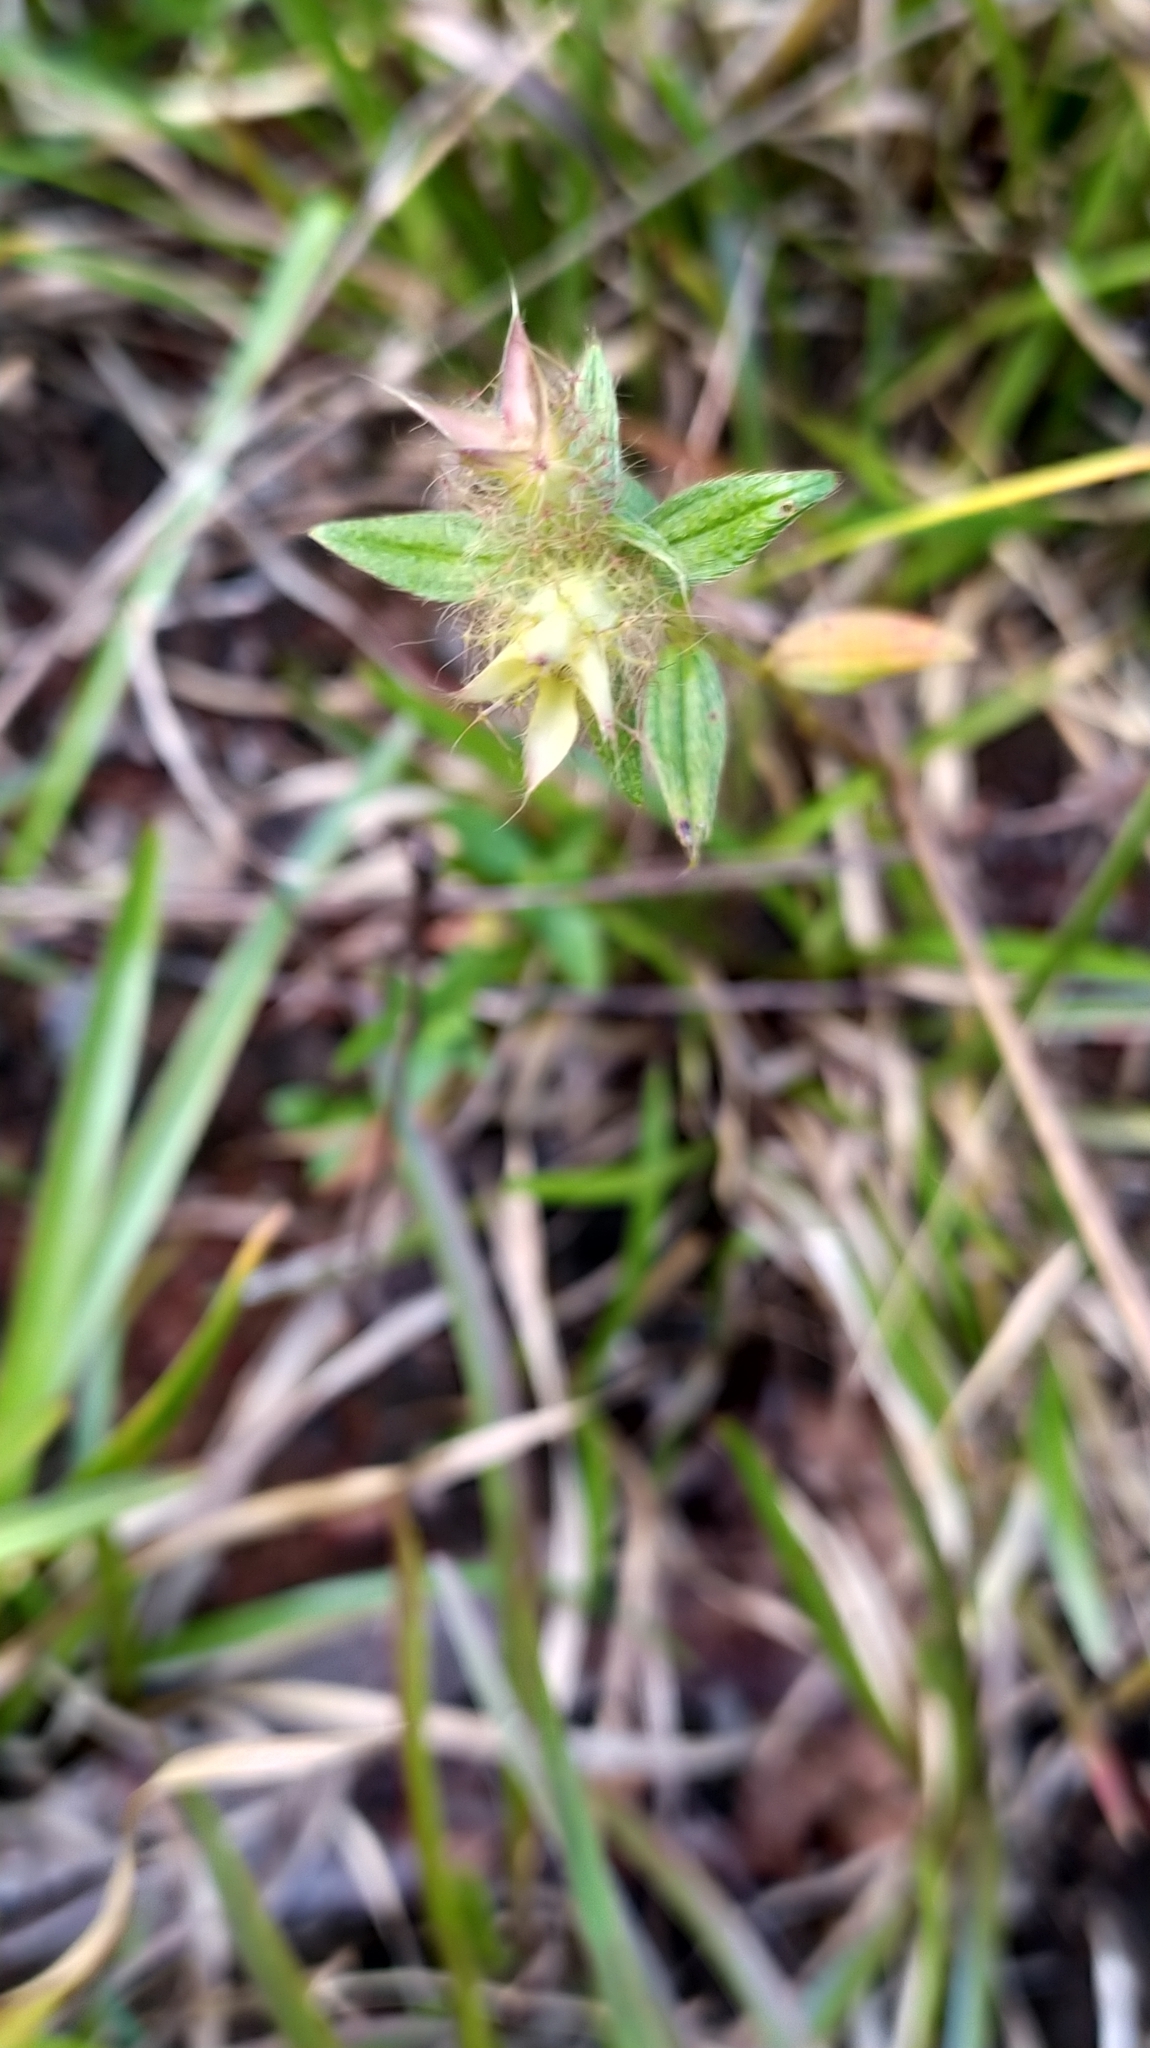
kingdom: Plantae
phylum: Tracheophyta
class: Magnoliopsida
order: Myrtales
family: Melastomataceae
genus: Pterolepis
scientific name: Pterolepis glomerata
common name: False meadowbeauty
